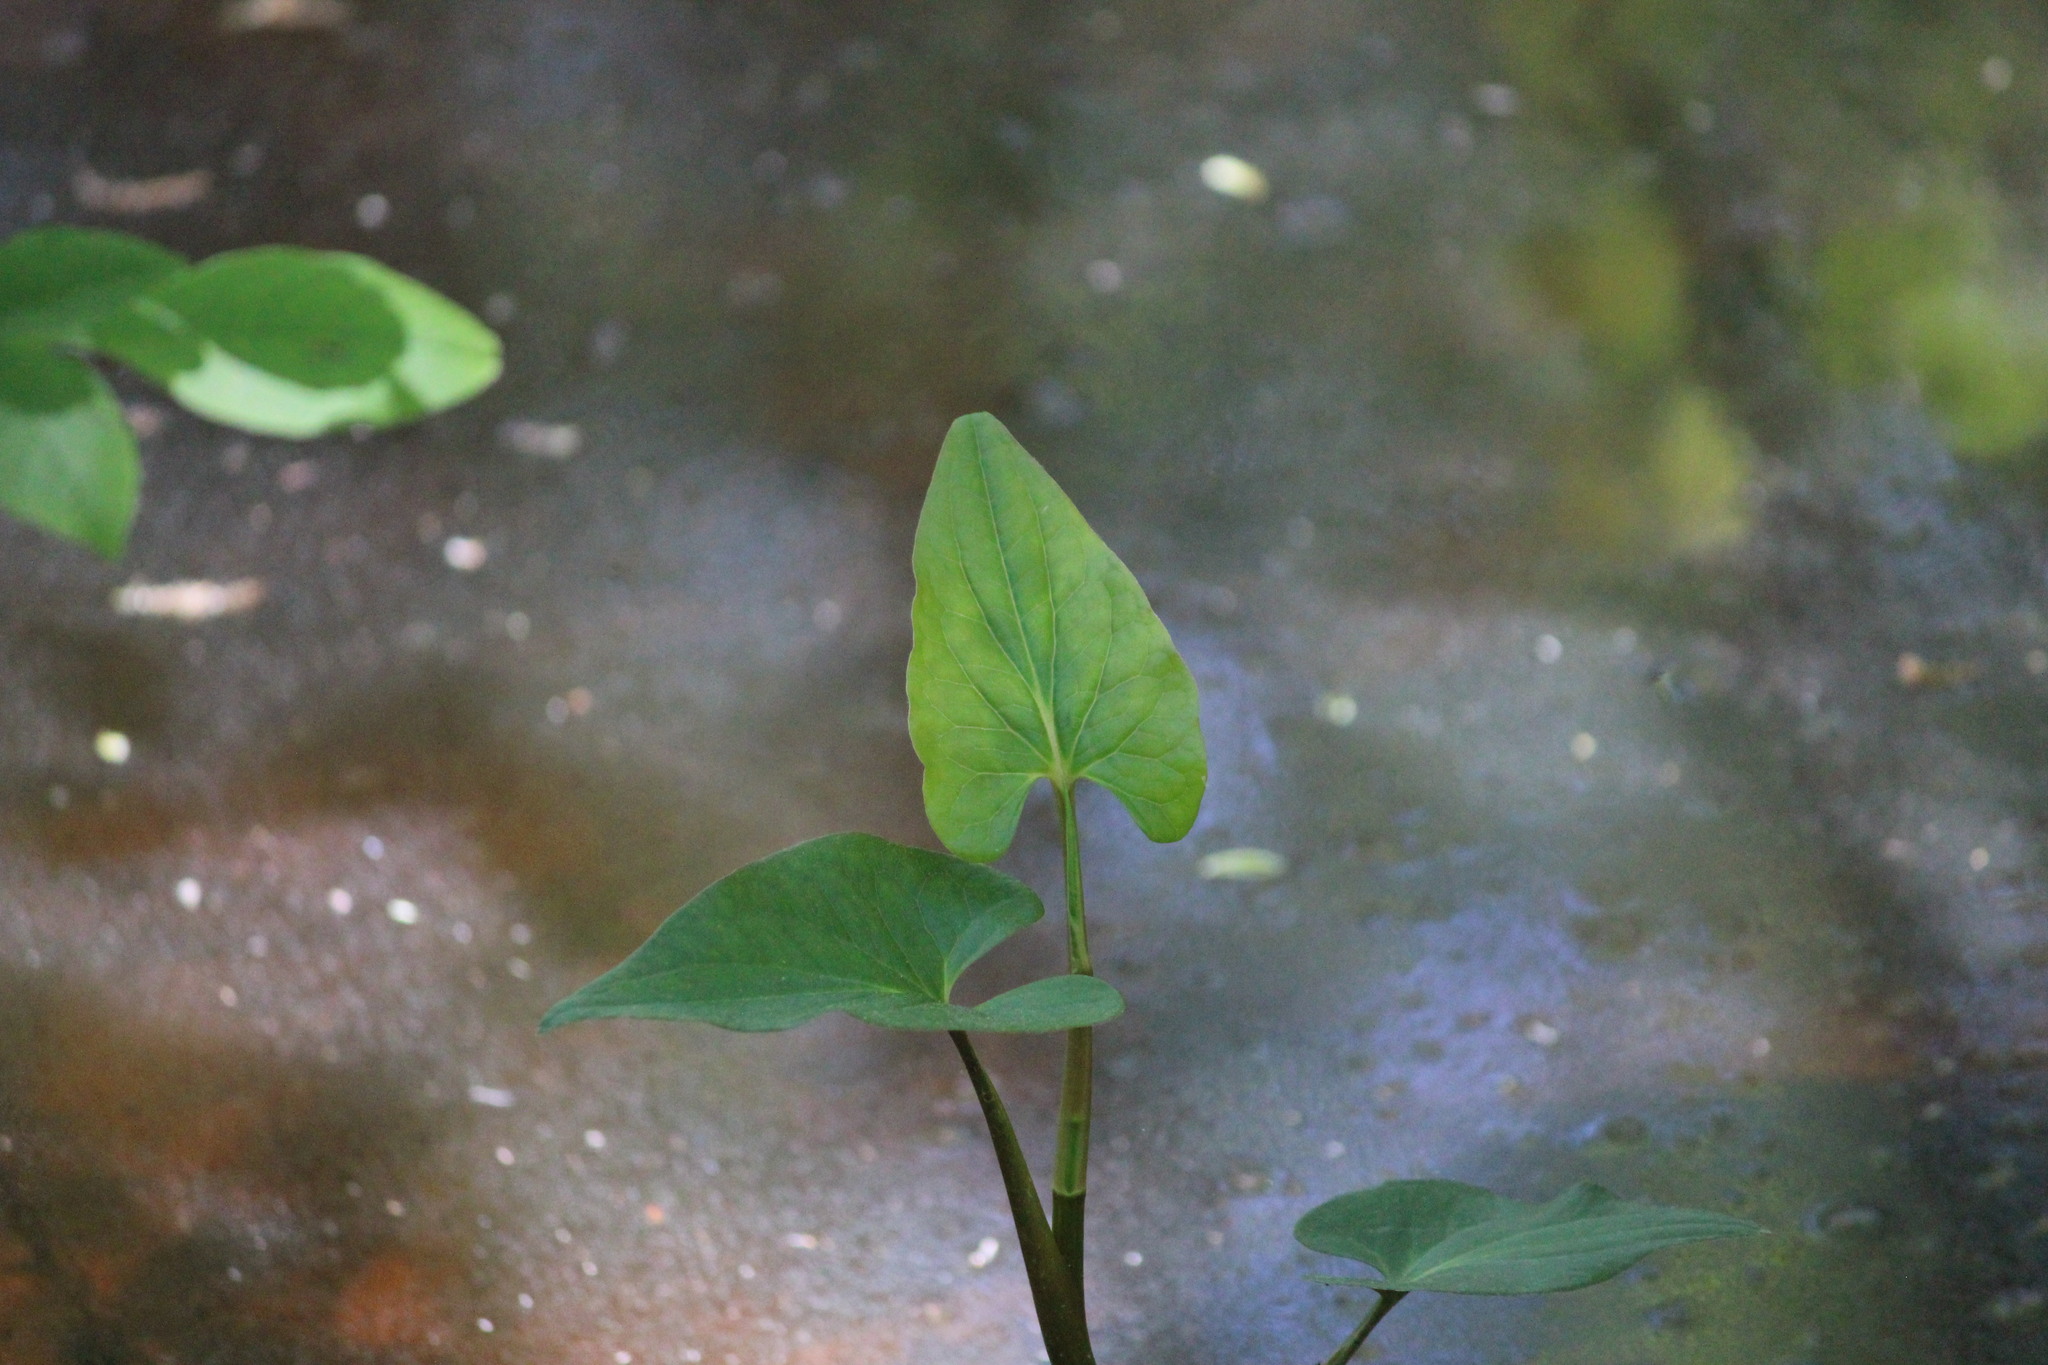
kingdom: Plantae
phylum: Tracheophyta
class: Magnoliopsida
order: Piperales
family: Saururaceae
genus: Saururus
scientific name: Saururus cernuus
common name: Lizard's-tail
